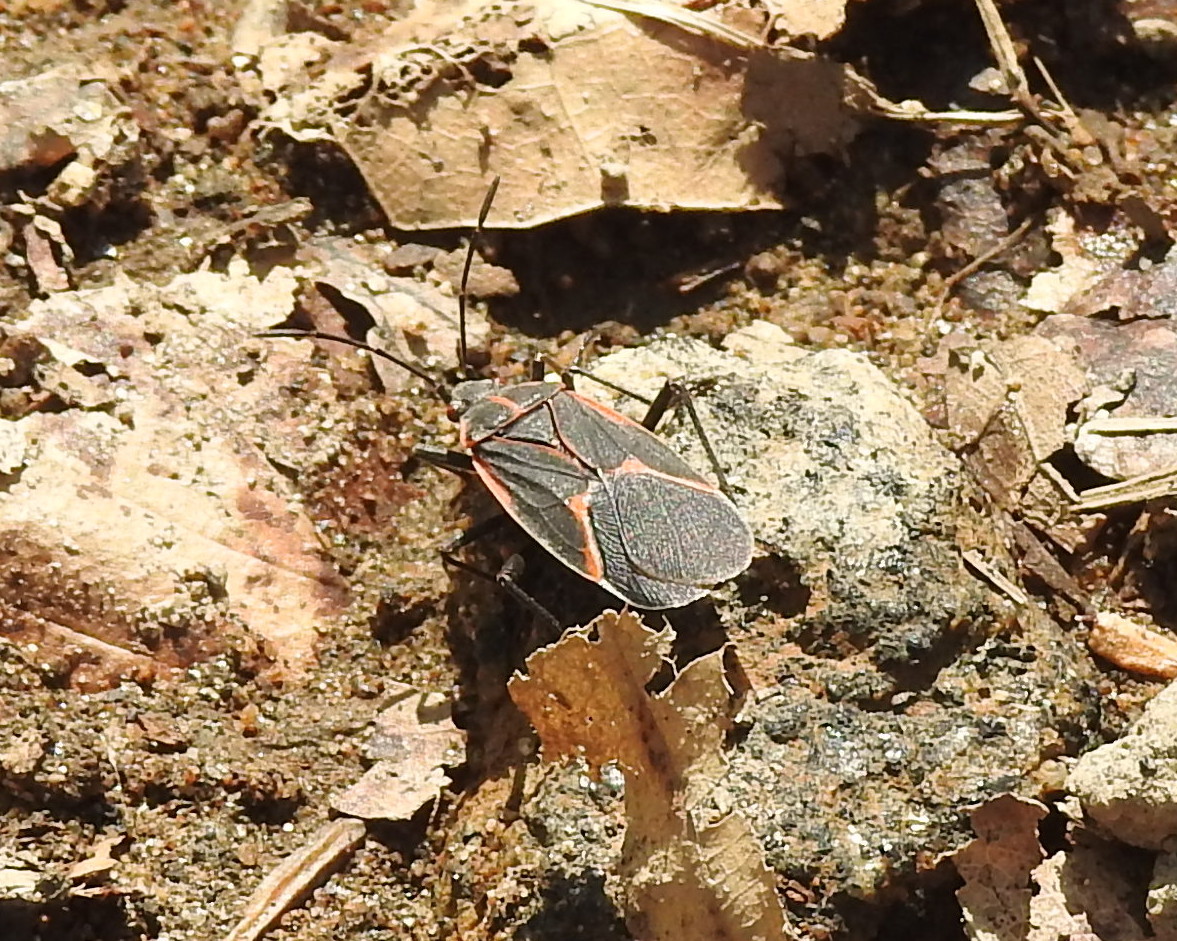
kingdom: Animalia
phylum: Arthropoda
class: Insecta
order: Hemiptera
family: Rhopalidae
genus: Boisea
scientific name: Boisea trivittata
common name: Boxelder bug
